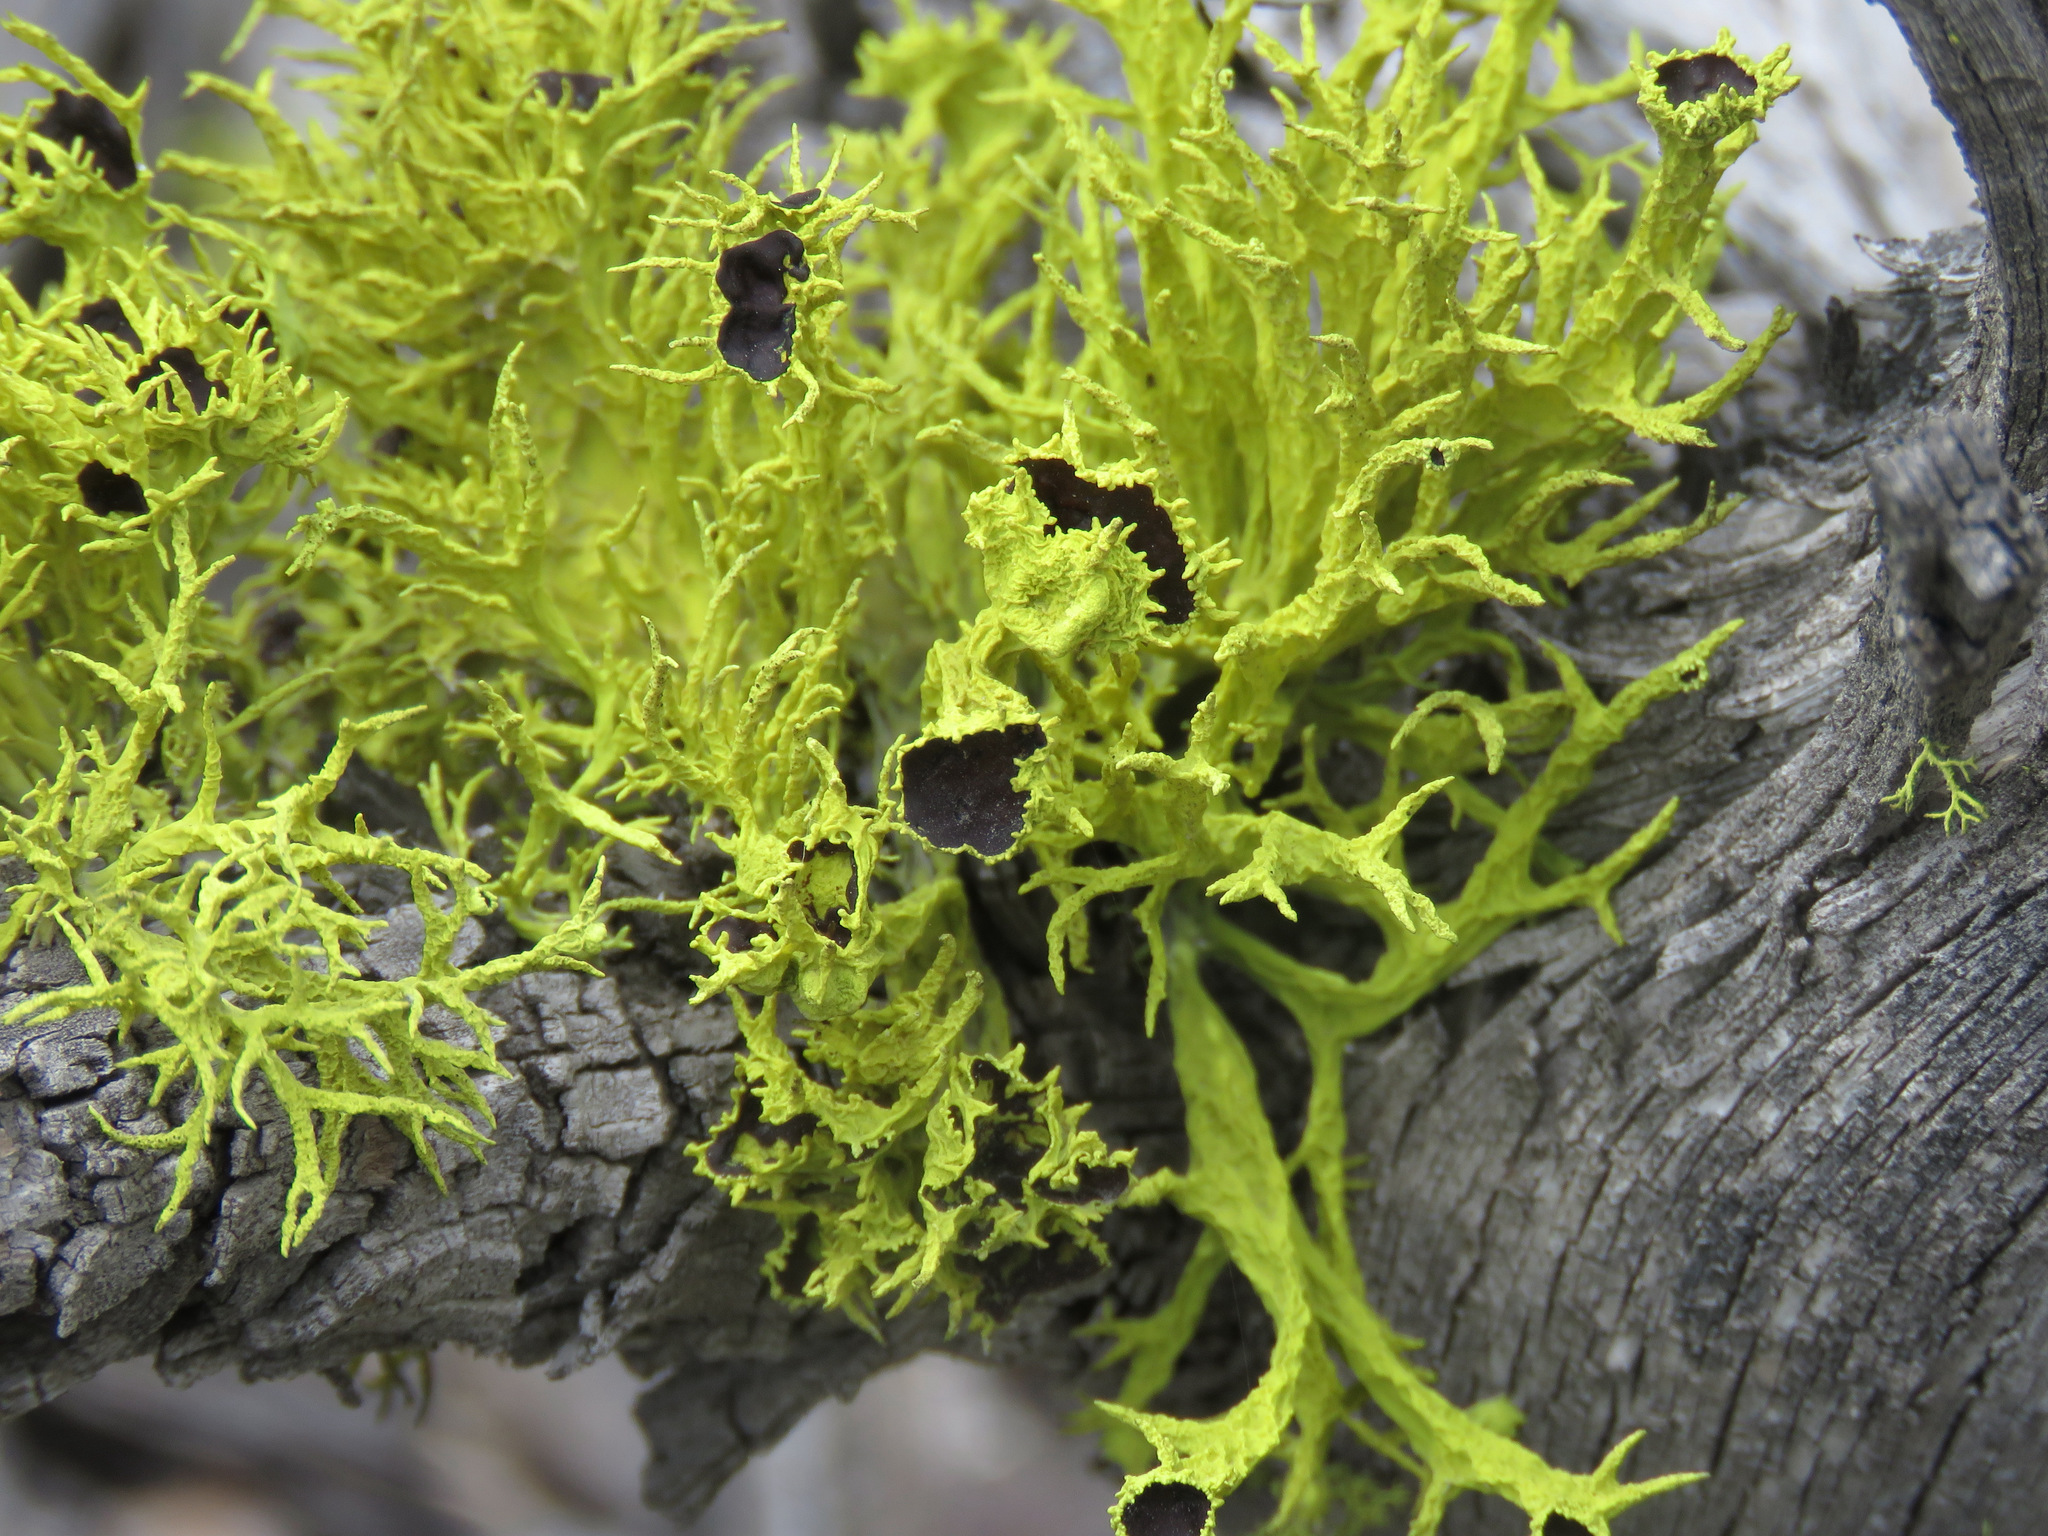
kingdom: Fungi
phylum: Ascomycota
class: Lecanoromycetes
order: Lecanorales
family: Parmeliaceae
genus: Letharia
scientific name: Letharia columbiana
